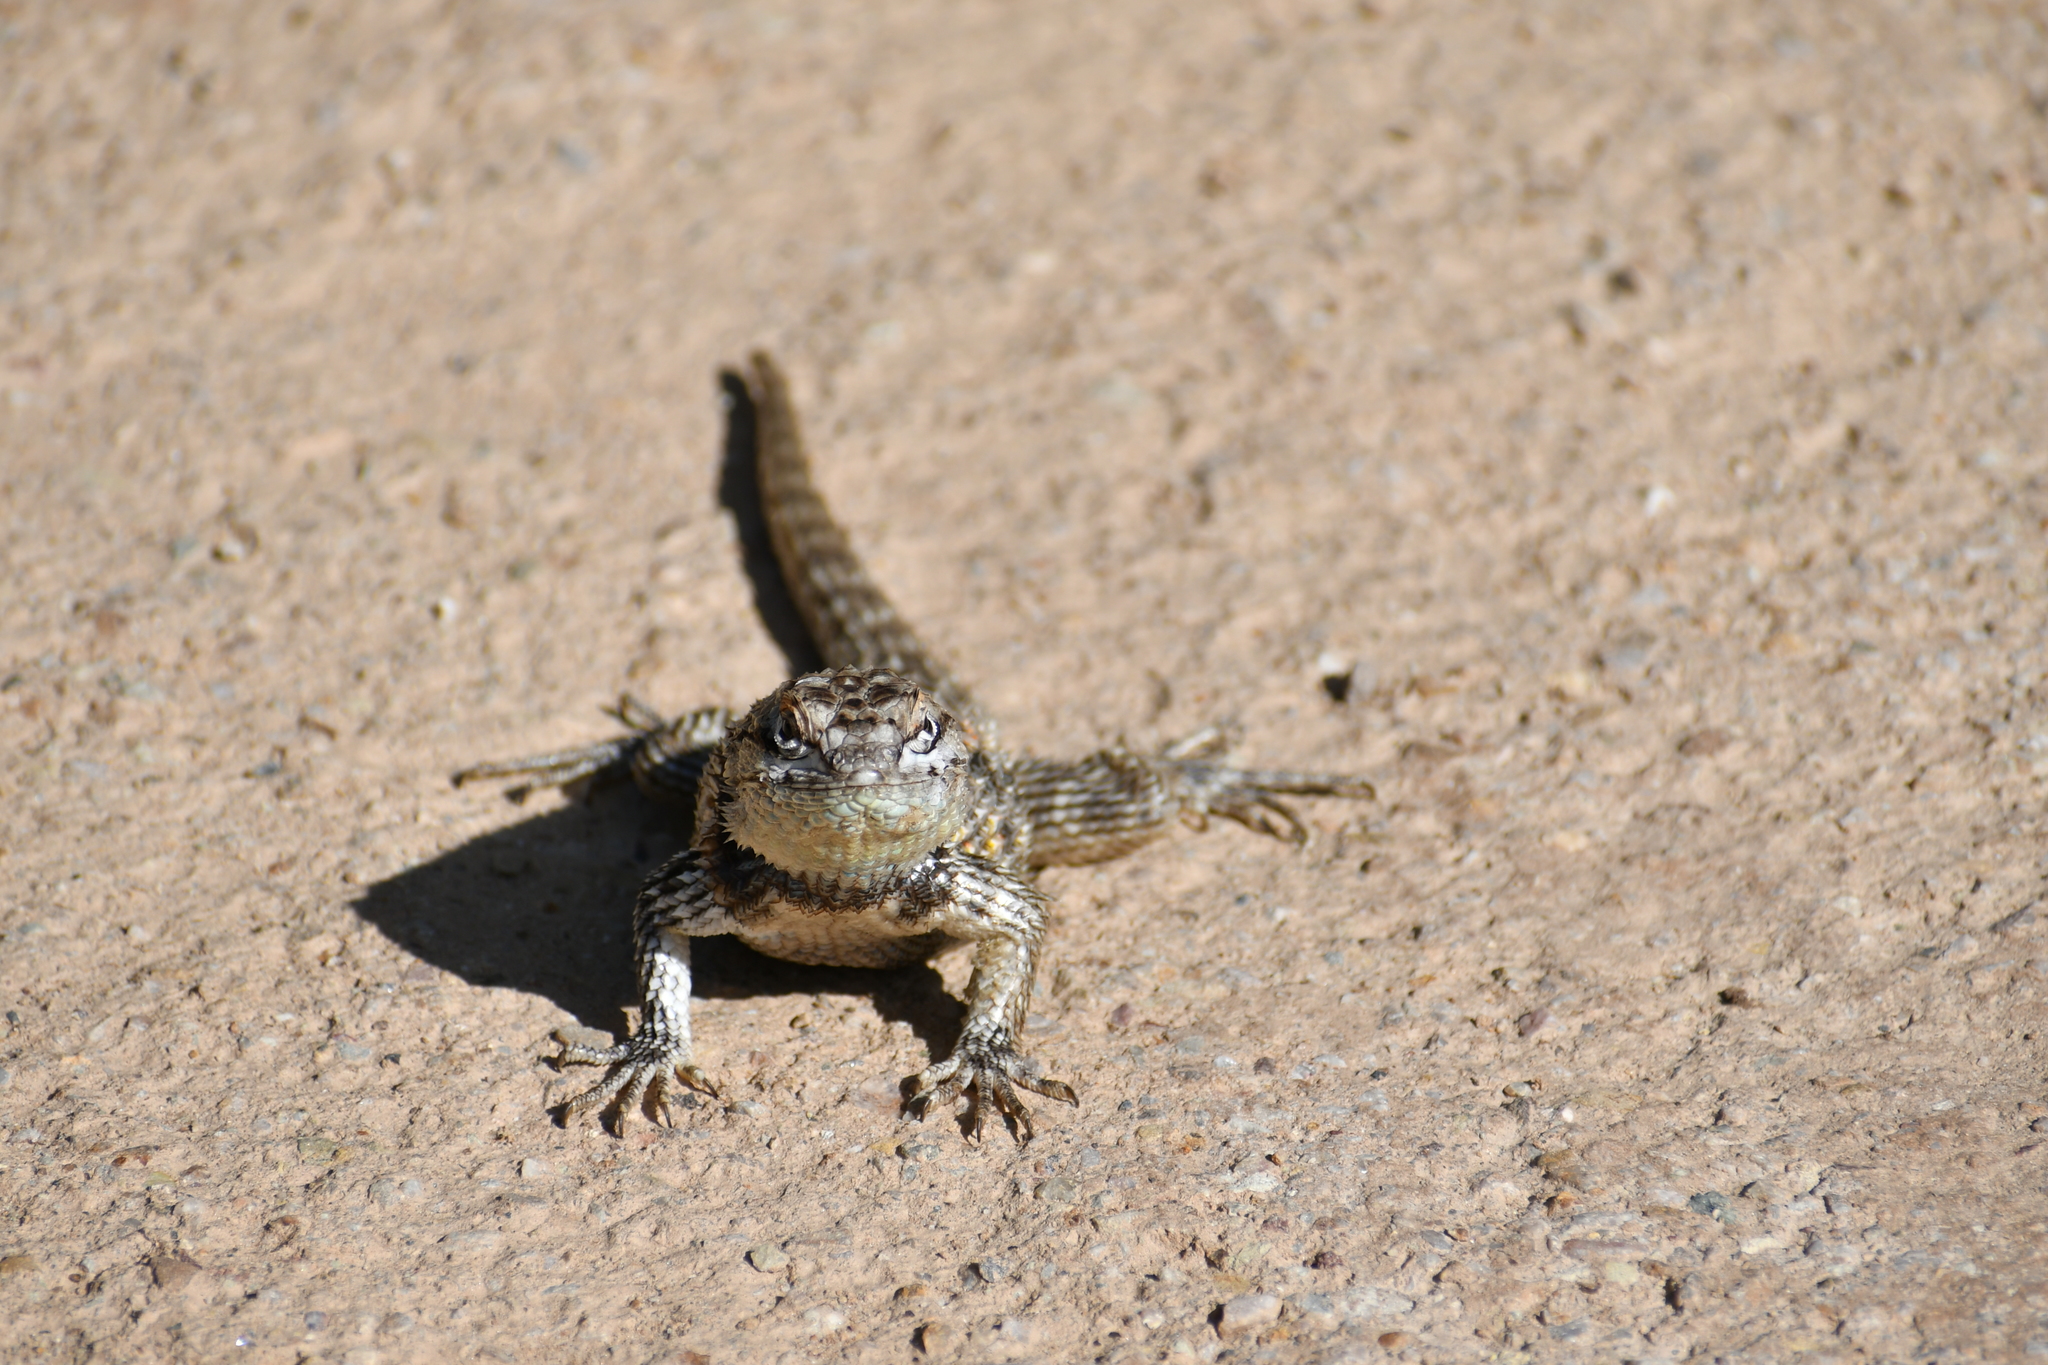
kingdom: Animalia
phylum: Chordata
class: Squamata
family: Phrynosomatidae
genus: Sceloporus
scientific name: Sceloporus magister
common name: Desert spiny lizard
